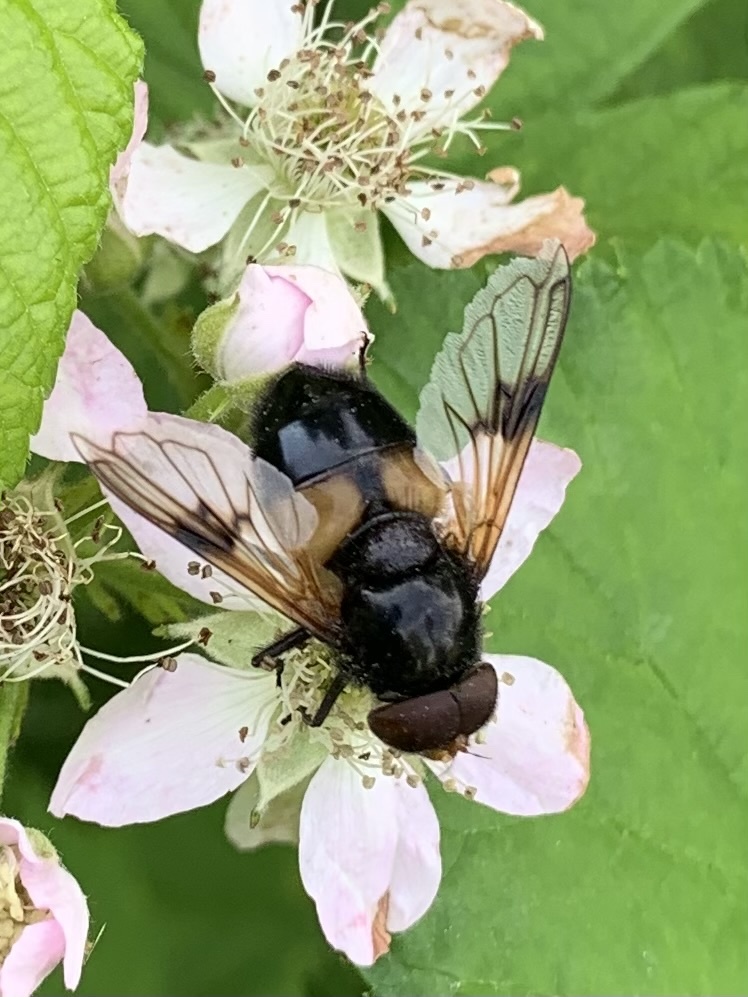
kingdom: Animalia
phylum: Arthropoda
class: Insecta
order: Diptera
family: Syrphidae
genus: Volucella
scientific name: Volucella pellucens
